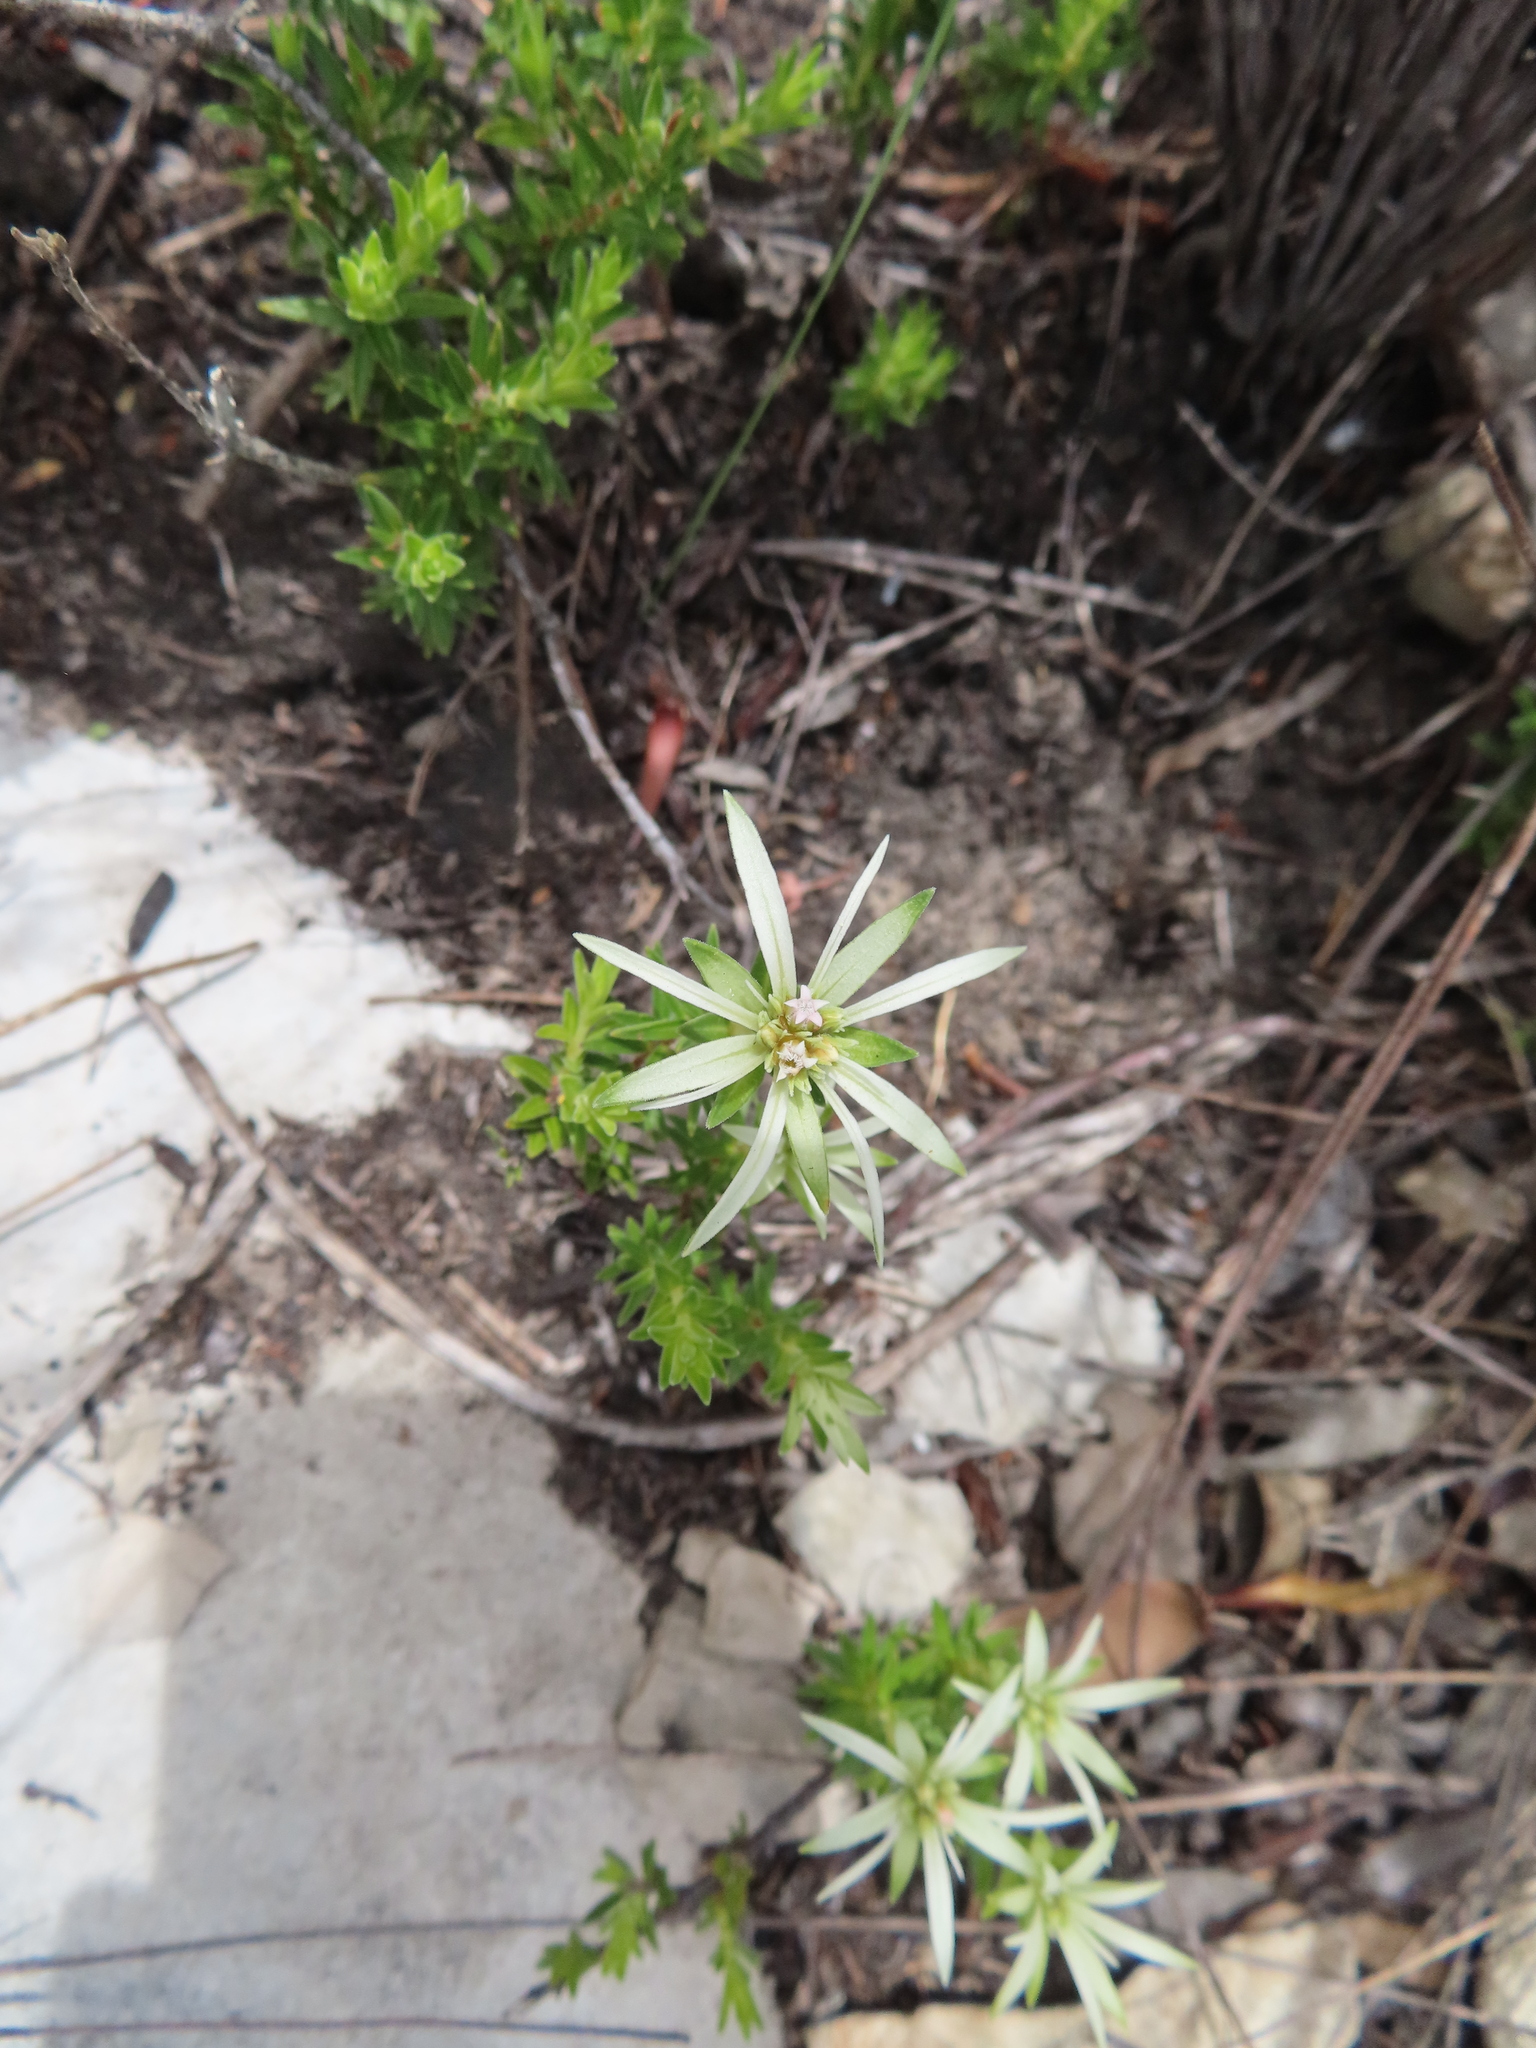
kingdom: Plantae
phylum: Tracheophyta
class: Magnoliopsida
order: Sapindales
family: Rutaceae
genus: Euchaetis
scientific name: Euchaetis longibracteata
